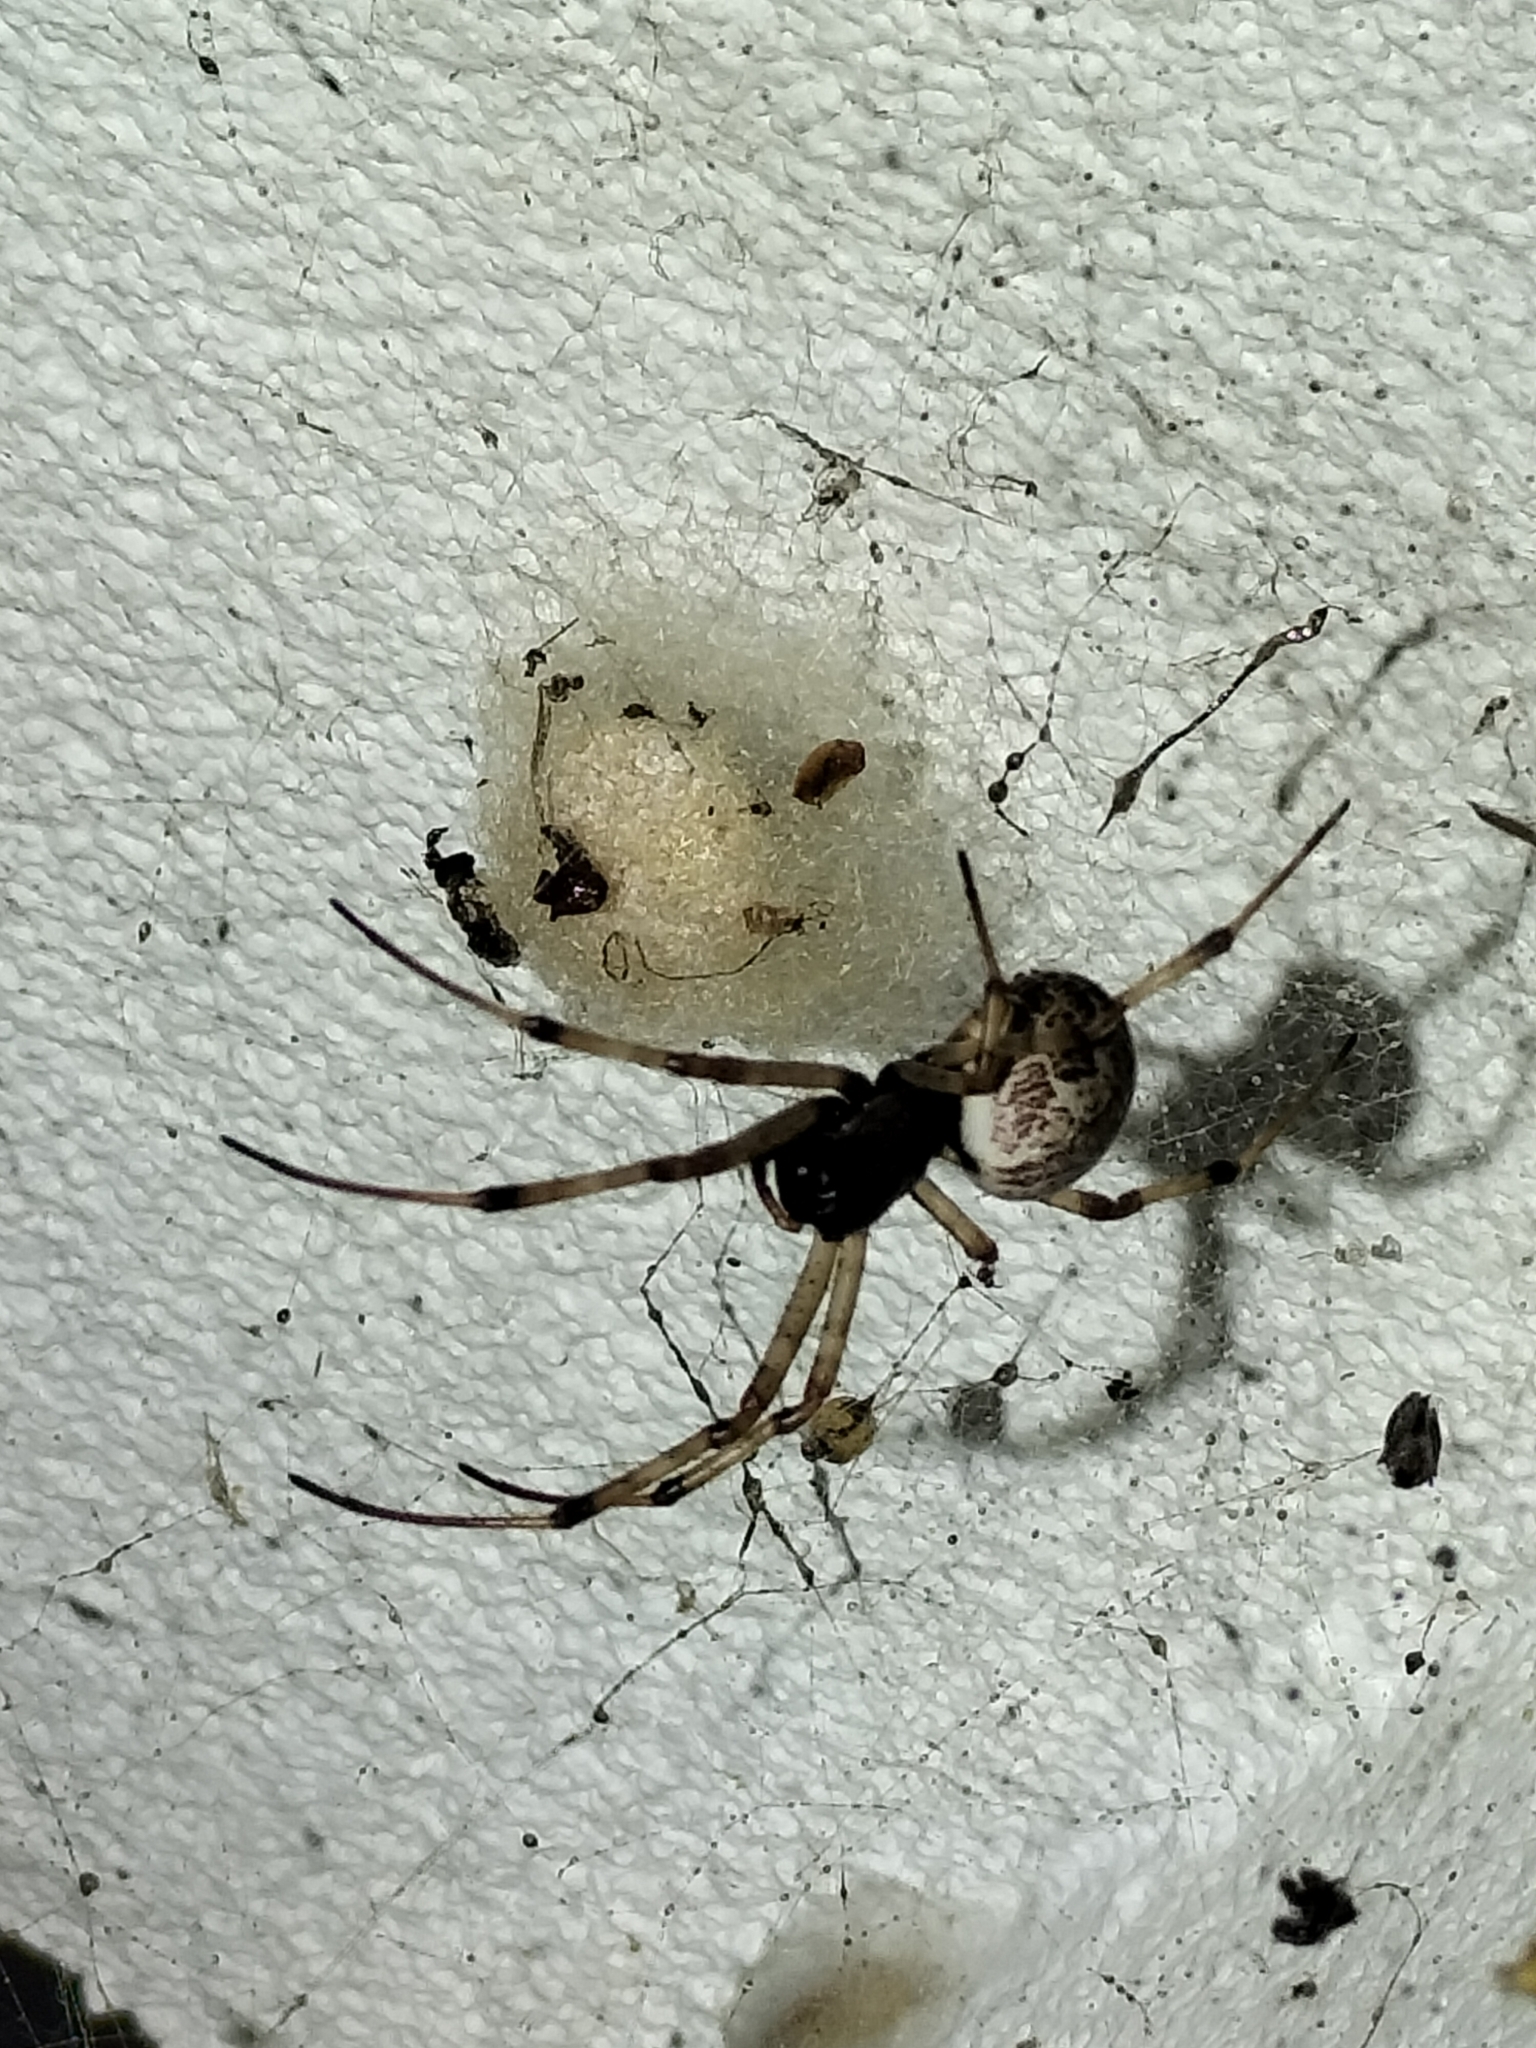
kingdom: Animalia
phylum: Arthropoda
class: Arachnida
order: Araneae
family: Araneidae
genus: Nephilengys
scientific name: Nephilengys papuana
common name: Papuan hermit spider
